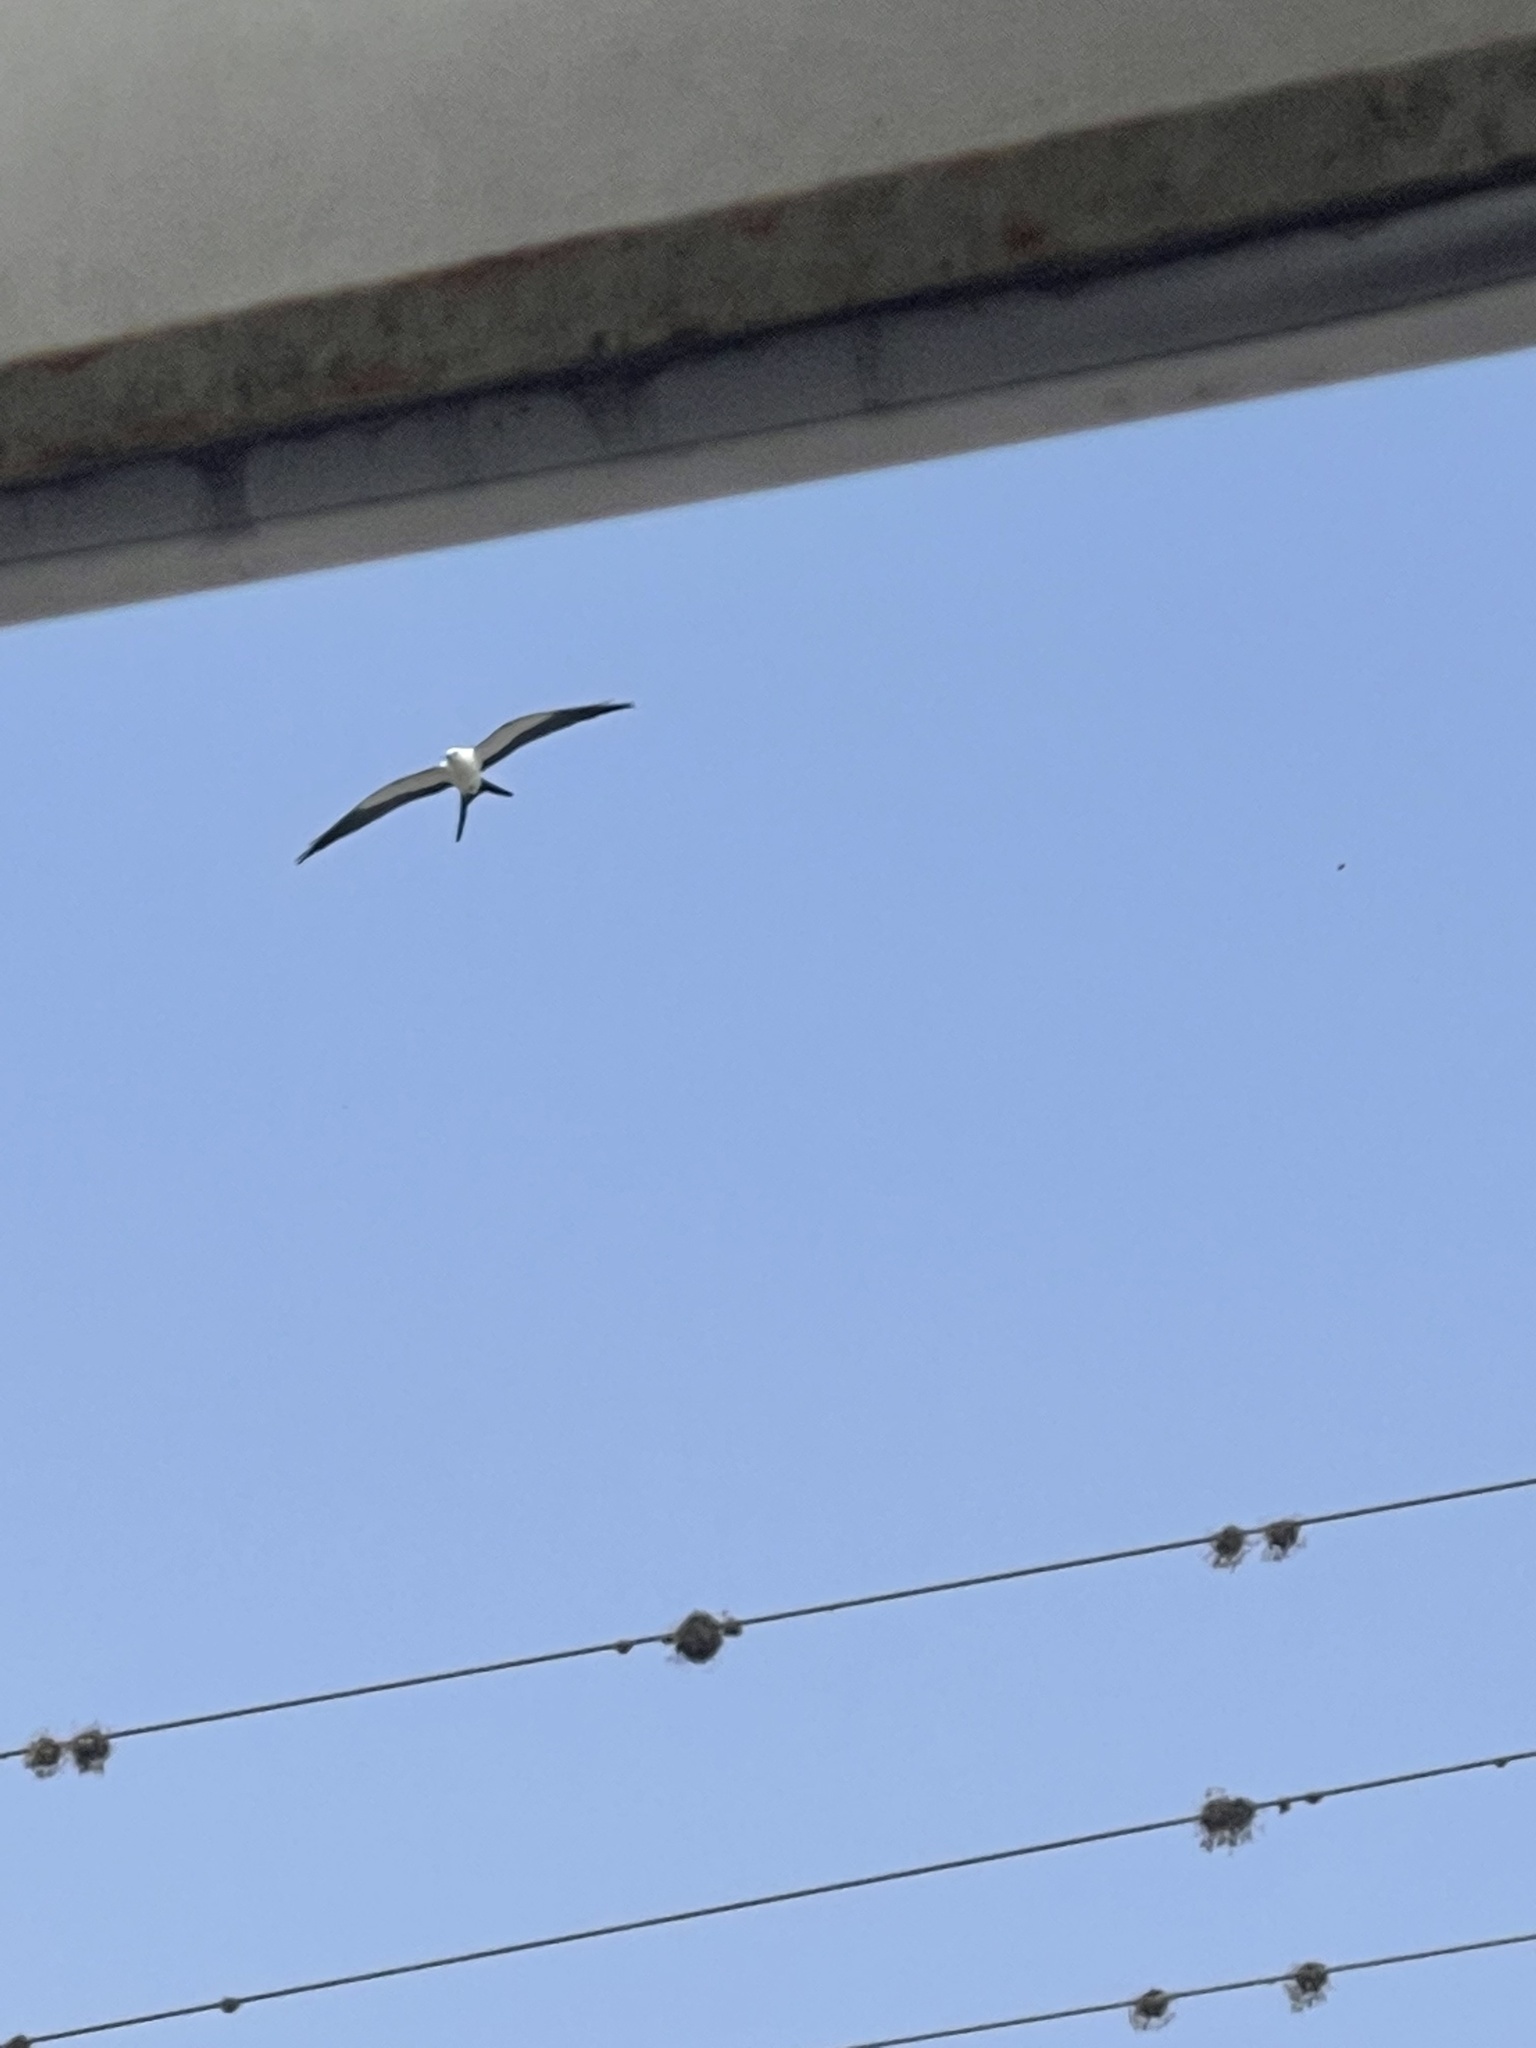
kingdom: Animalia
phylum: Chordata
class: Aves
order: Accipitriformes
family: Accipitridae
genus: Elanoides
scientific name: Elanoides forficatus
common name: Swallow-tailed kite
